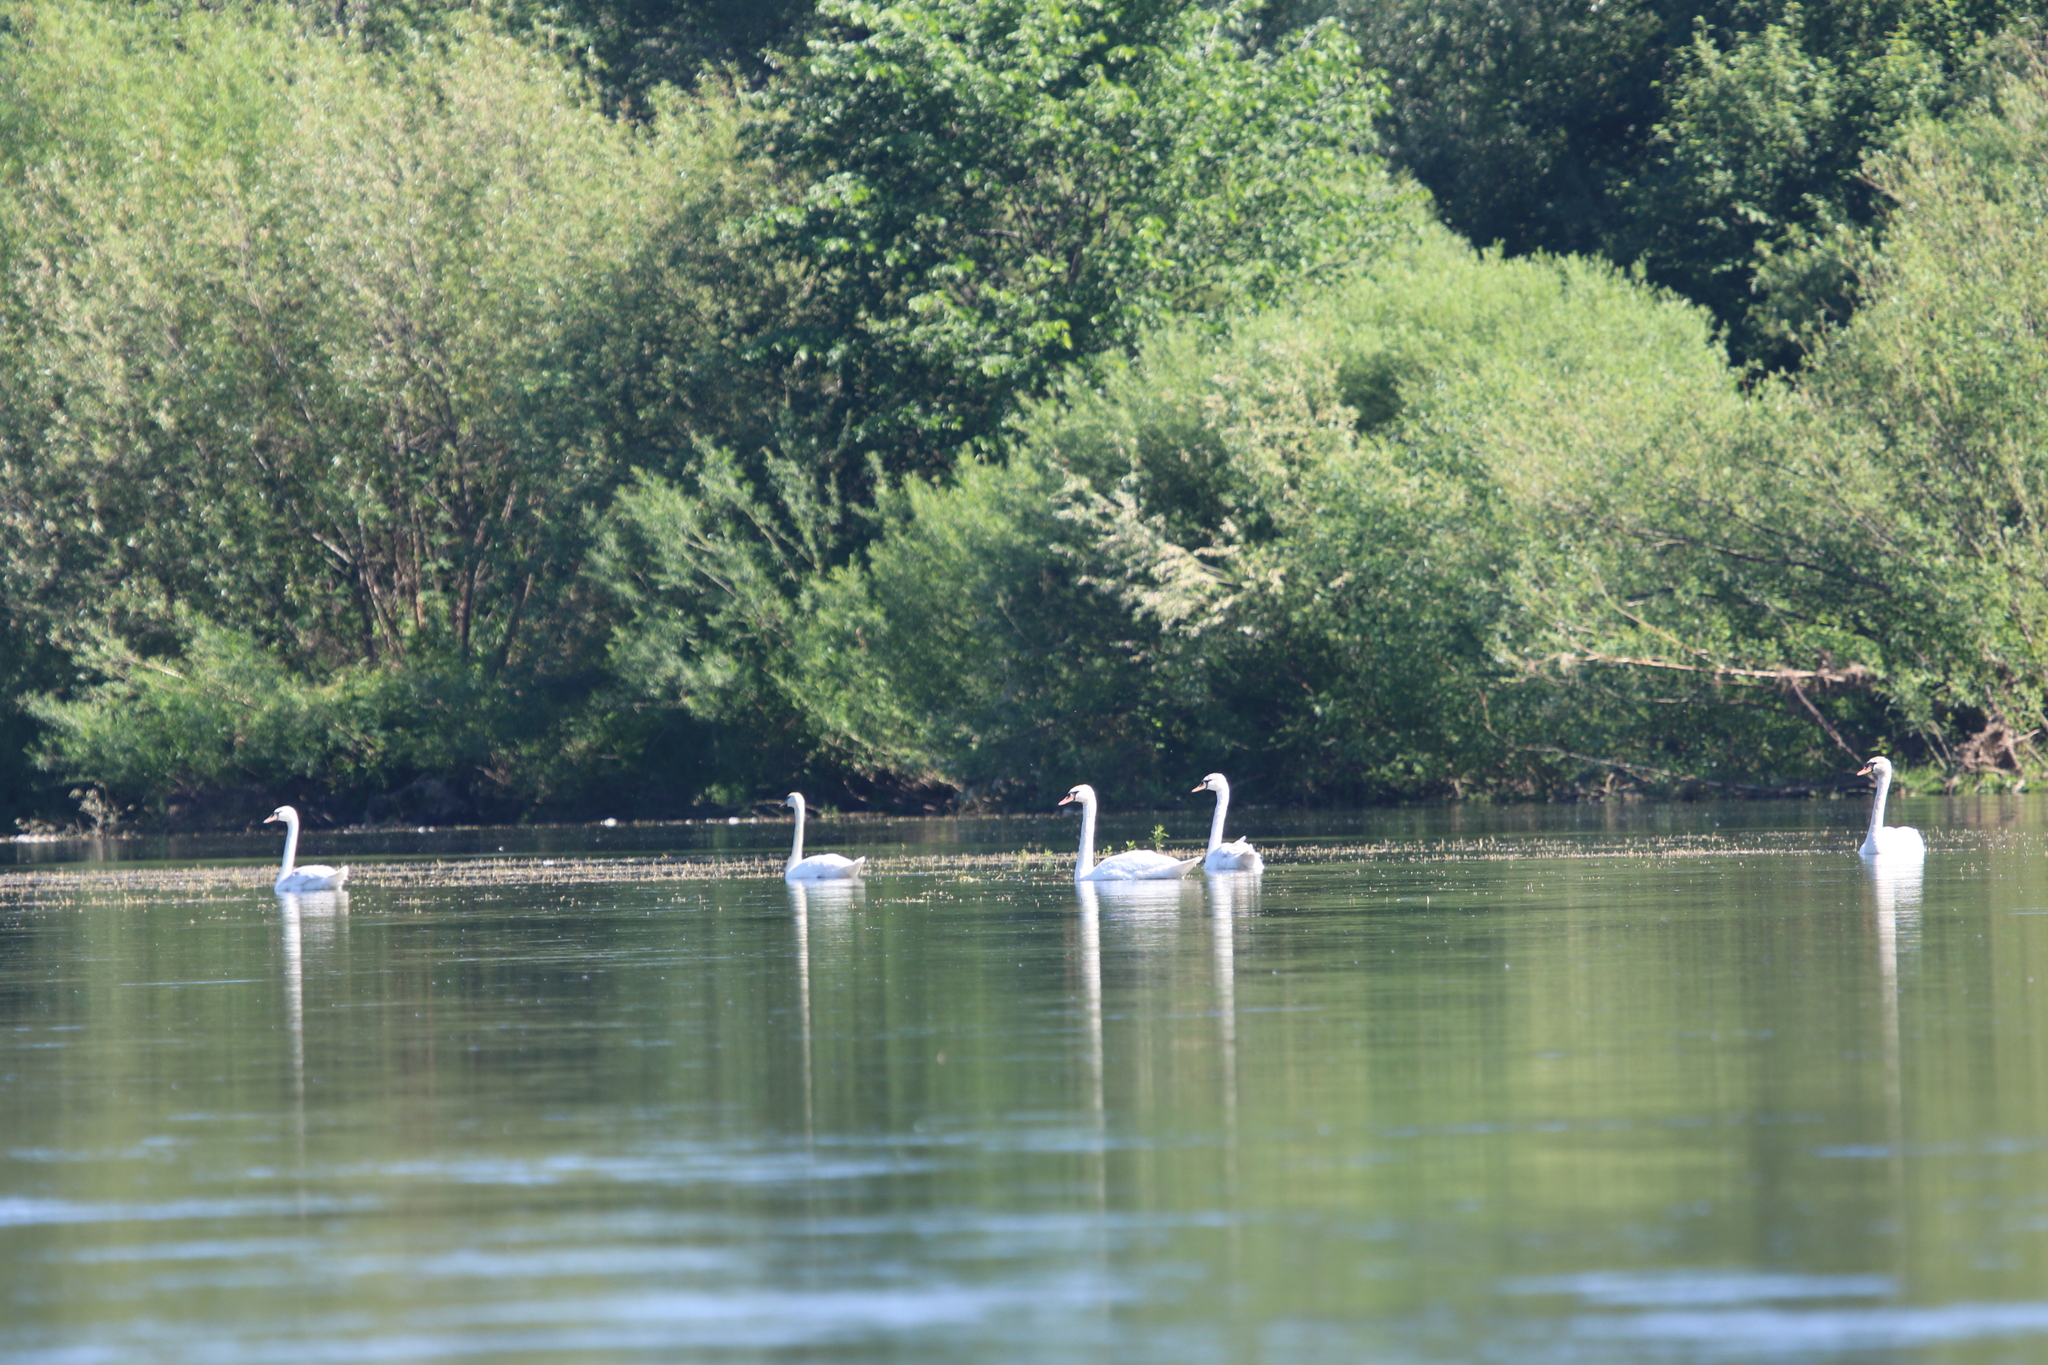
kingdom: Animalia
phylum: Chordata
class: Aves
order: Anseriformes
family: Anatidae
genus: Cygnus
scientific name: Cygnus olor
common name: Mute swan
